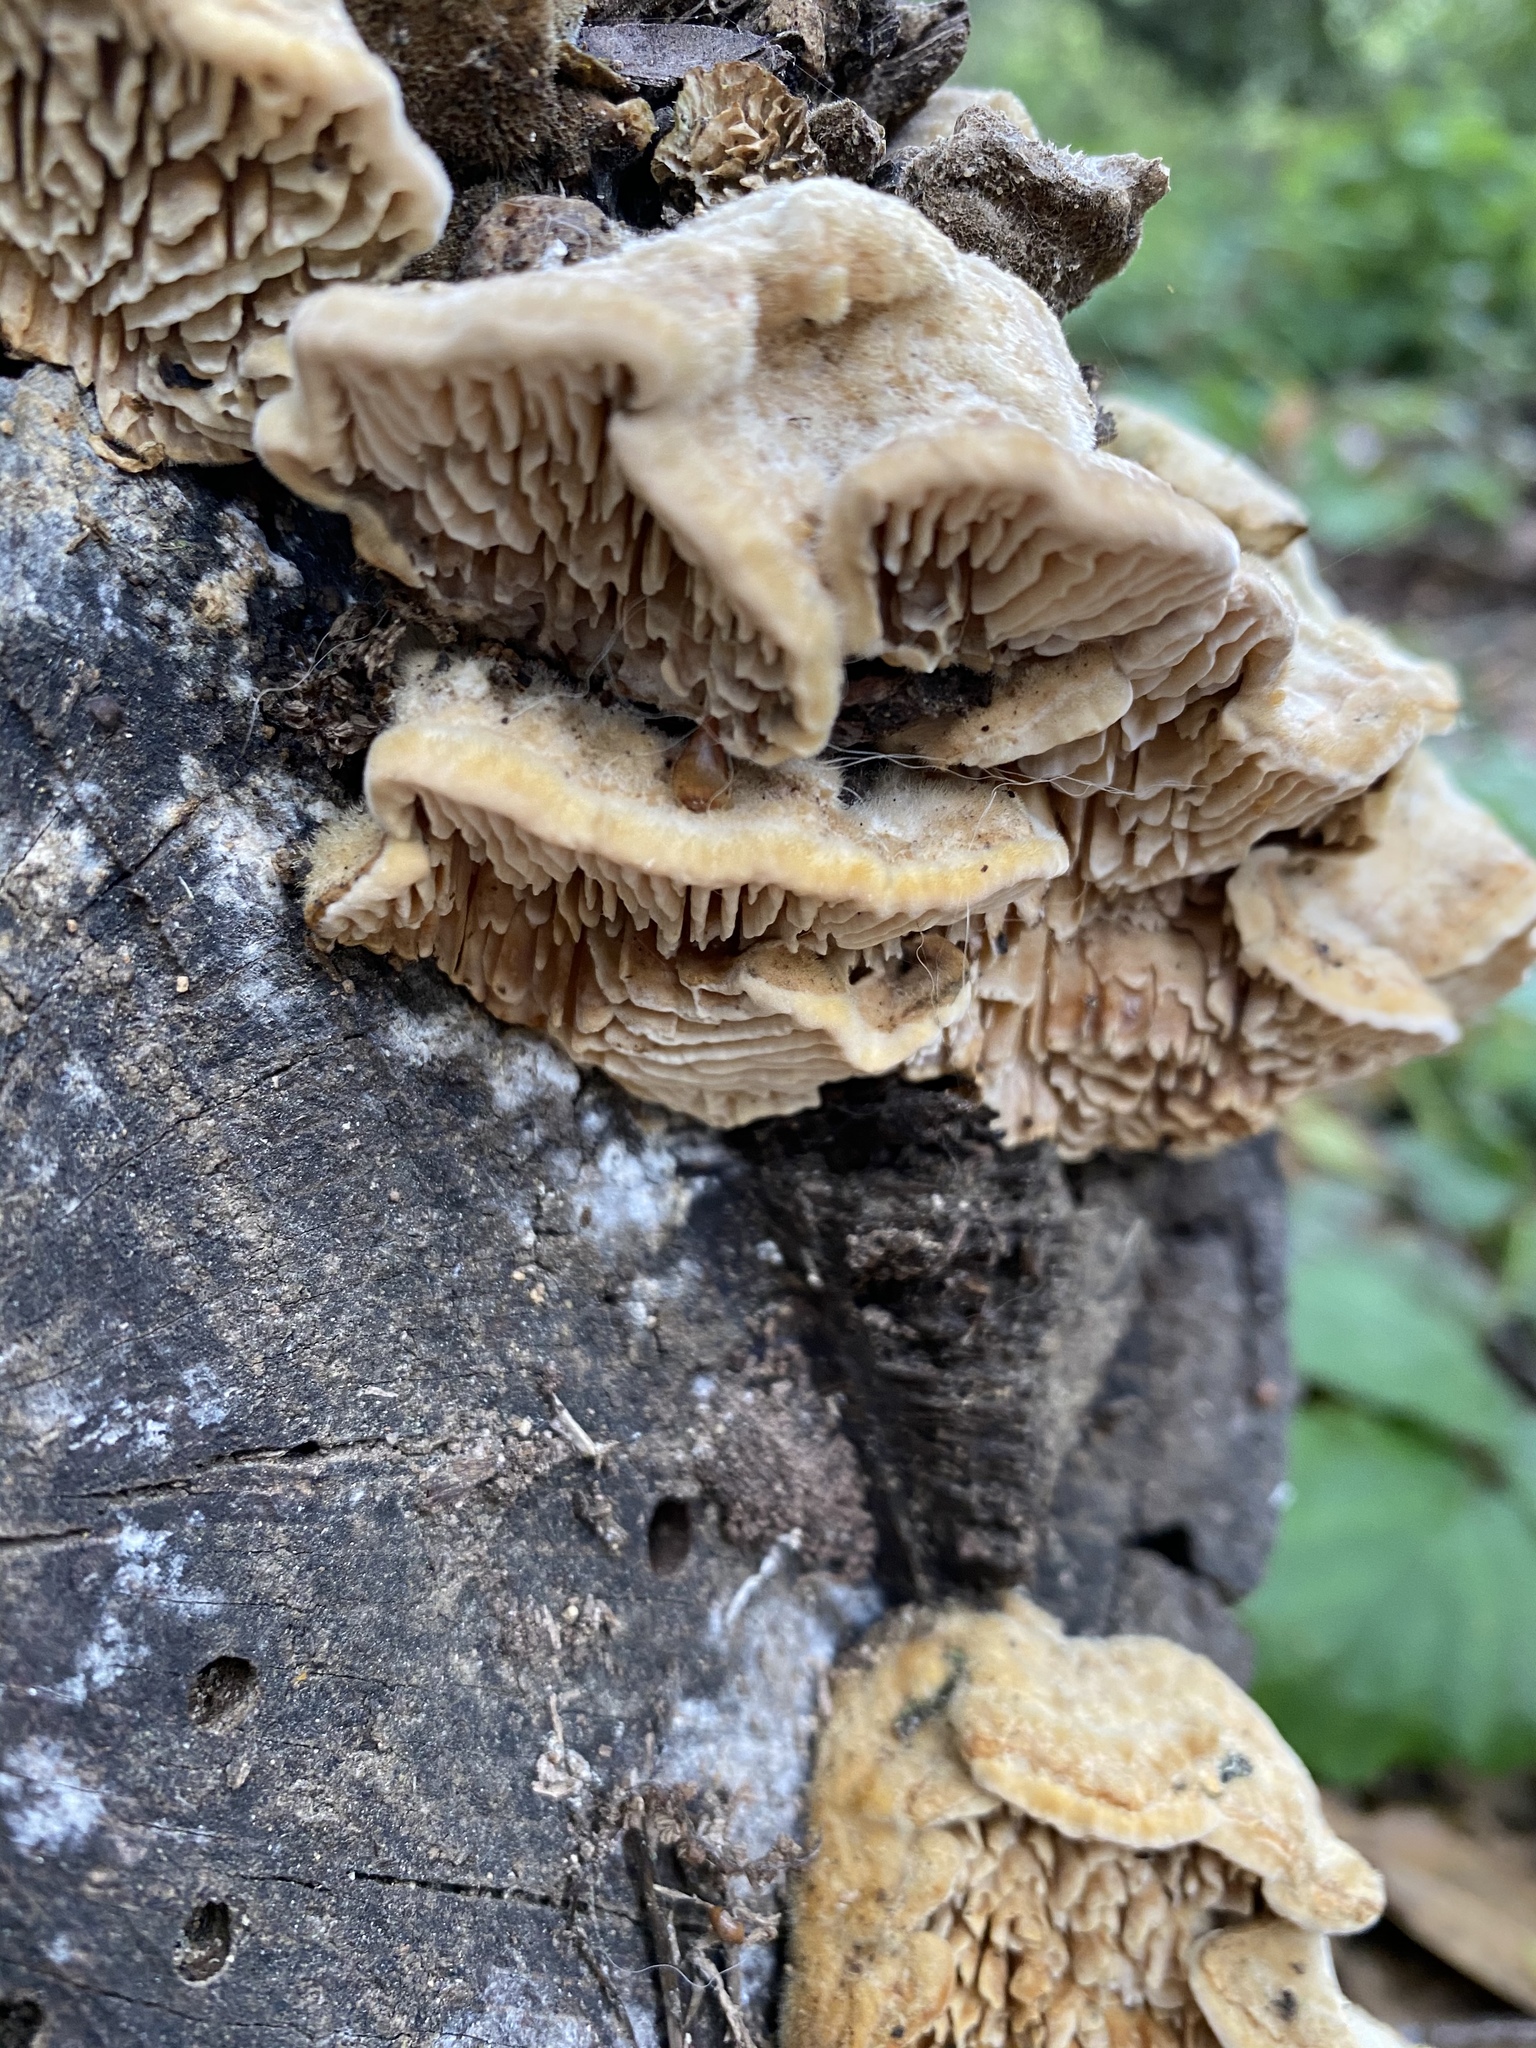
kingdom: Fungi
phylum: Basidiomycota
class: Agaricomycetes
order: Polyporales
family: Polyporaceae
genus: Lenzites
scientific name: Lenzites betulinus
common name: Birch mazegill
